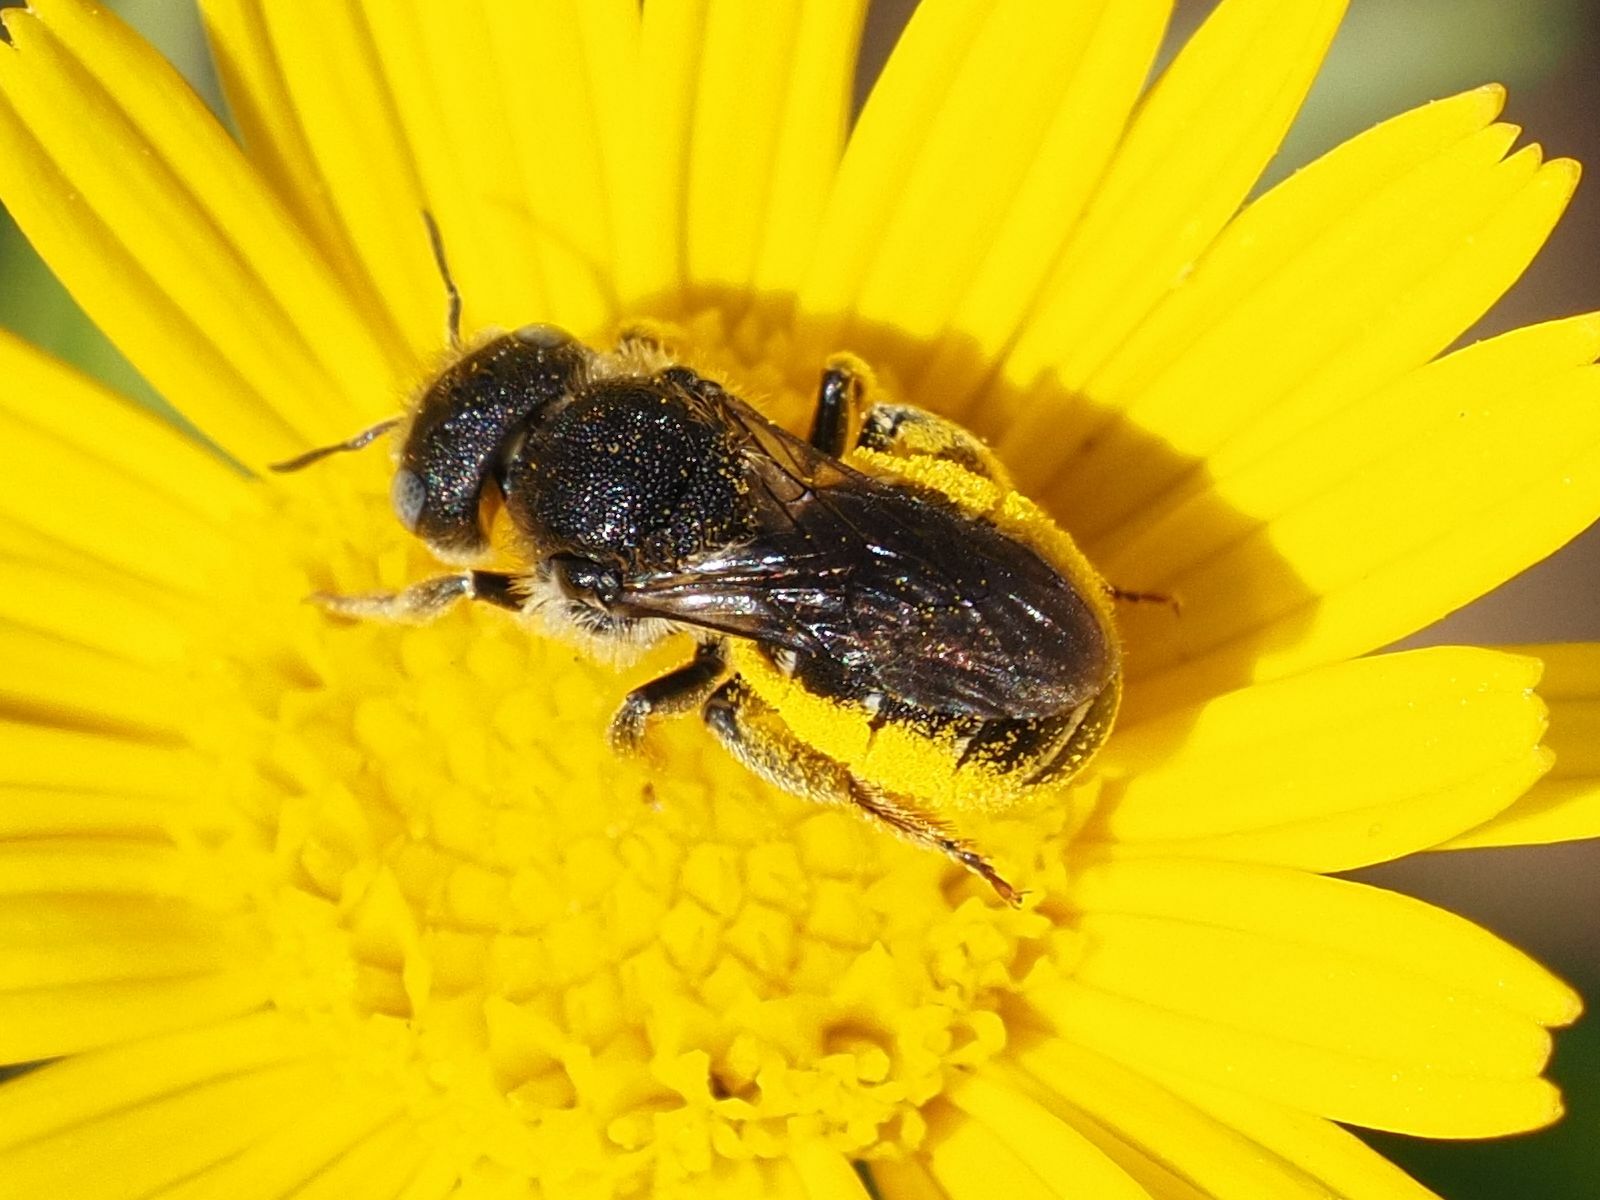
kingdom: Animalia
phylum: Arthropoda
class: Insecta
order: Hymenoptera
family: Megachilidae
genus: Osmia
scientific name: Osmia spinulosa
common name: Spined mason bee
